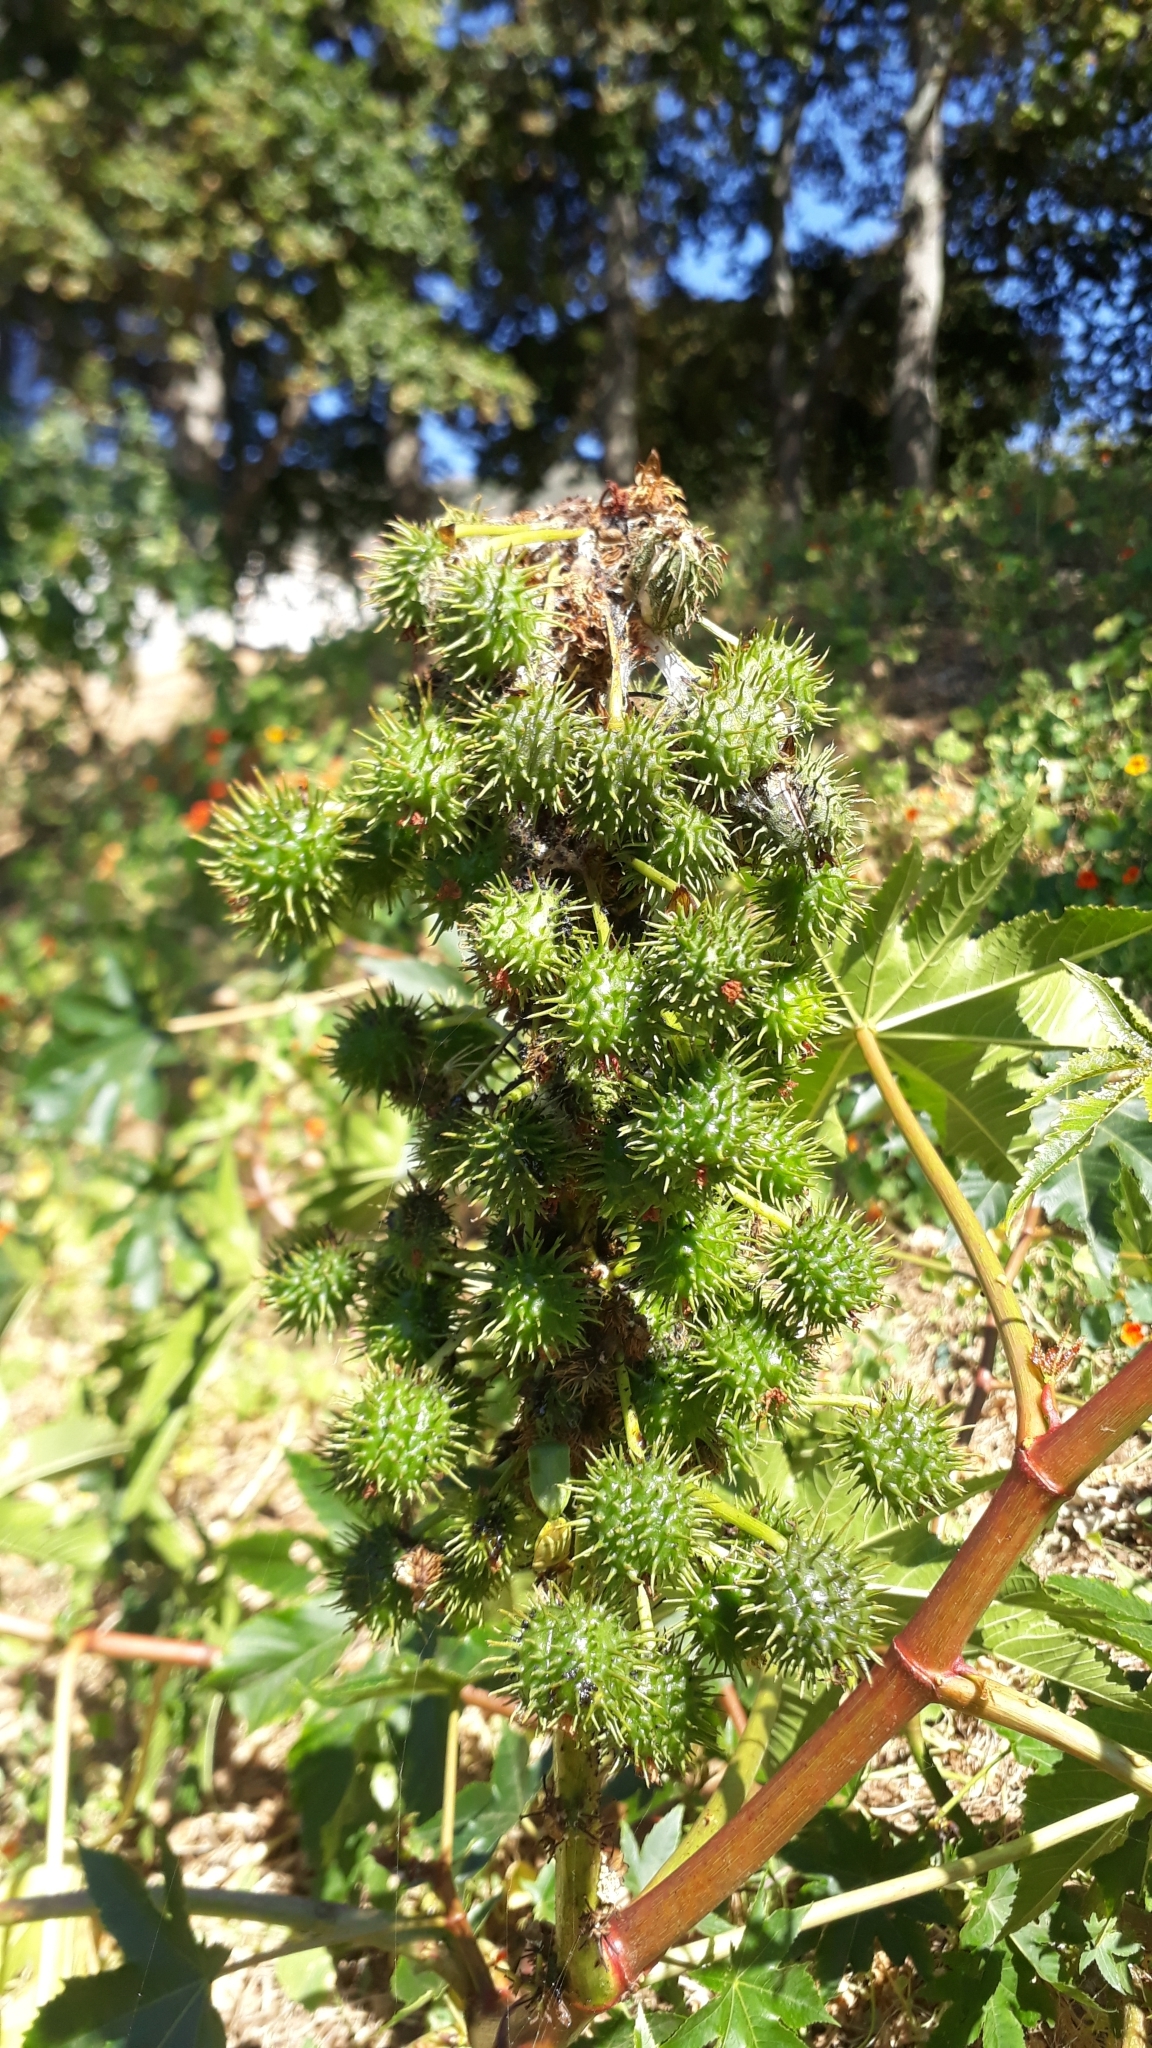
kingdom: Plantae
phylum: Tracheophyta
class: Magnoliopsida
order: Malpighiales
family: Euphorbiaceae
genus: Ricinus
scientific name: Ricinus communis
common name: Castor-oil-plant
